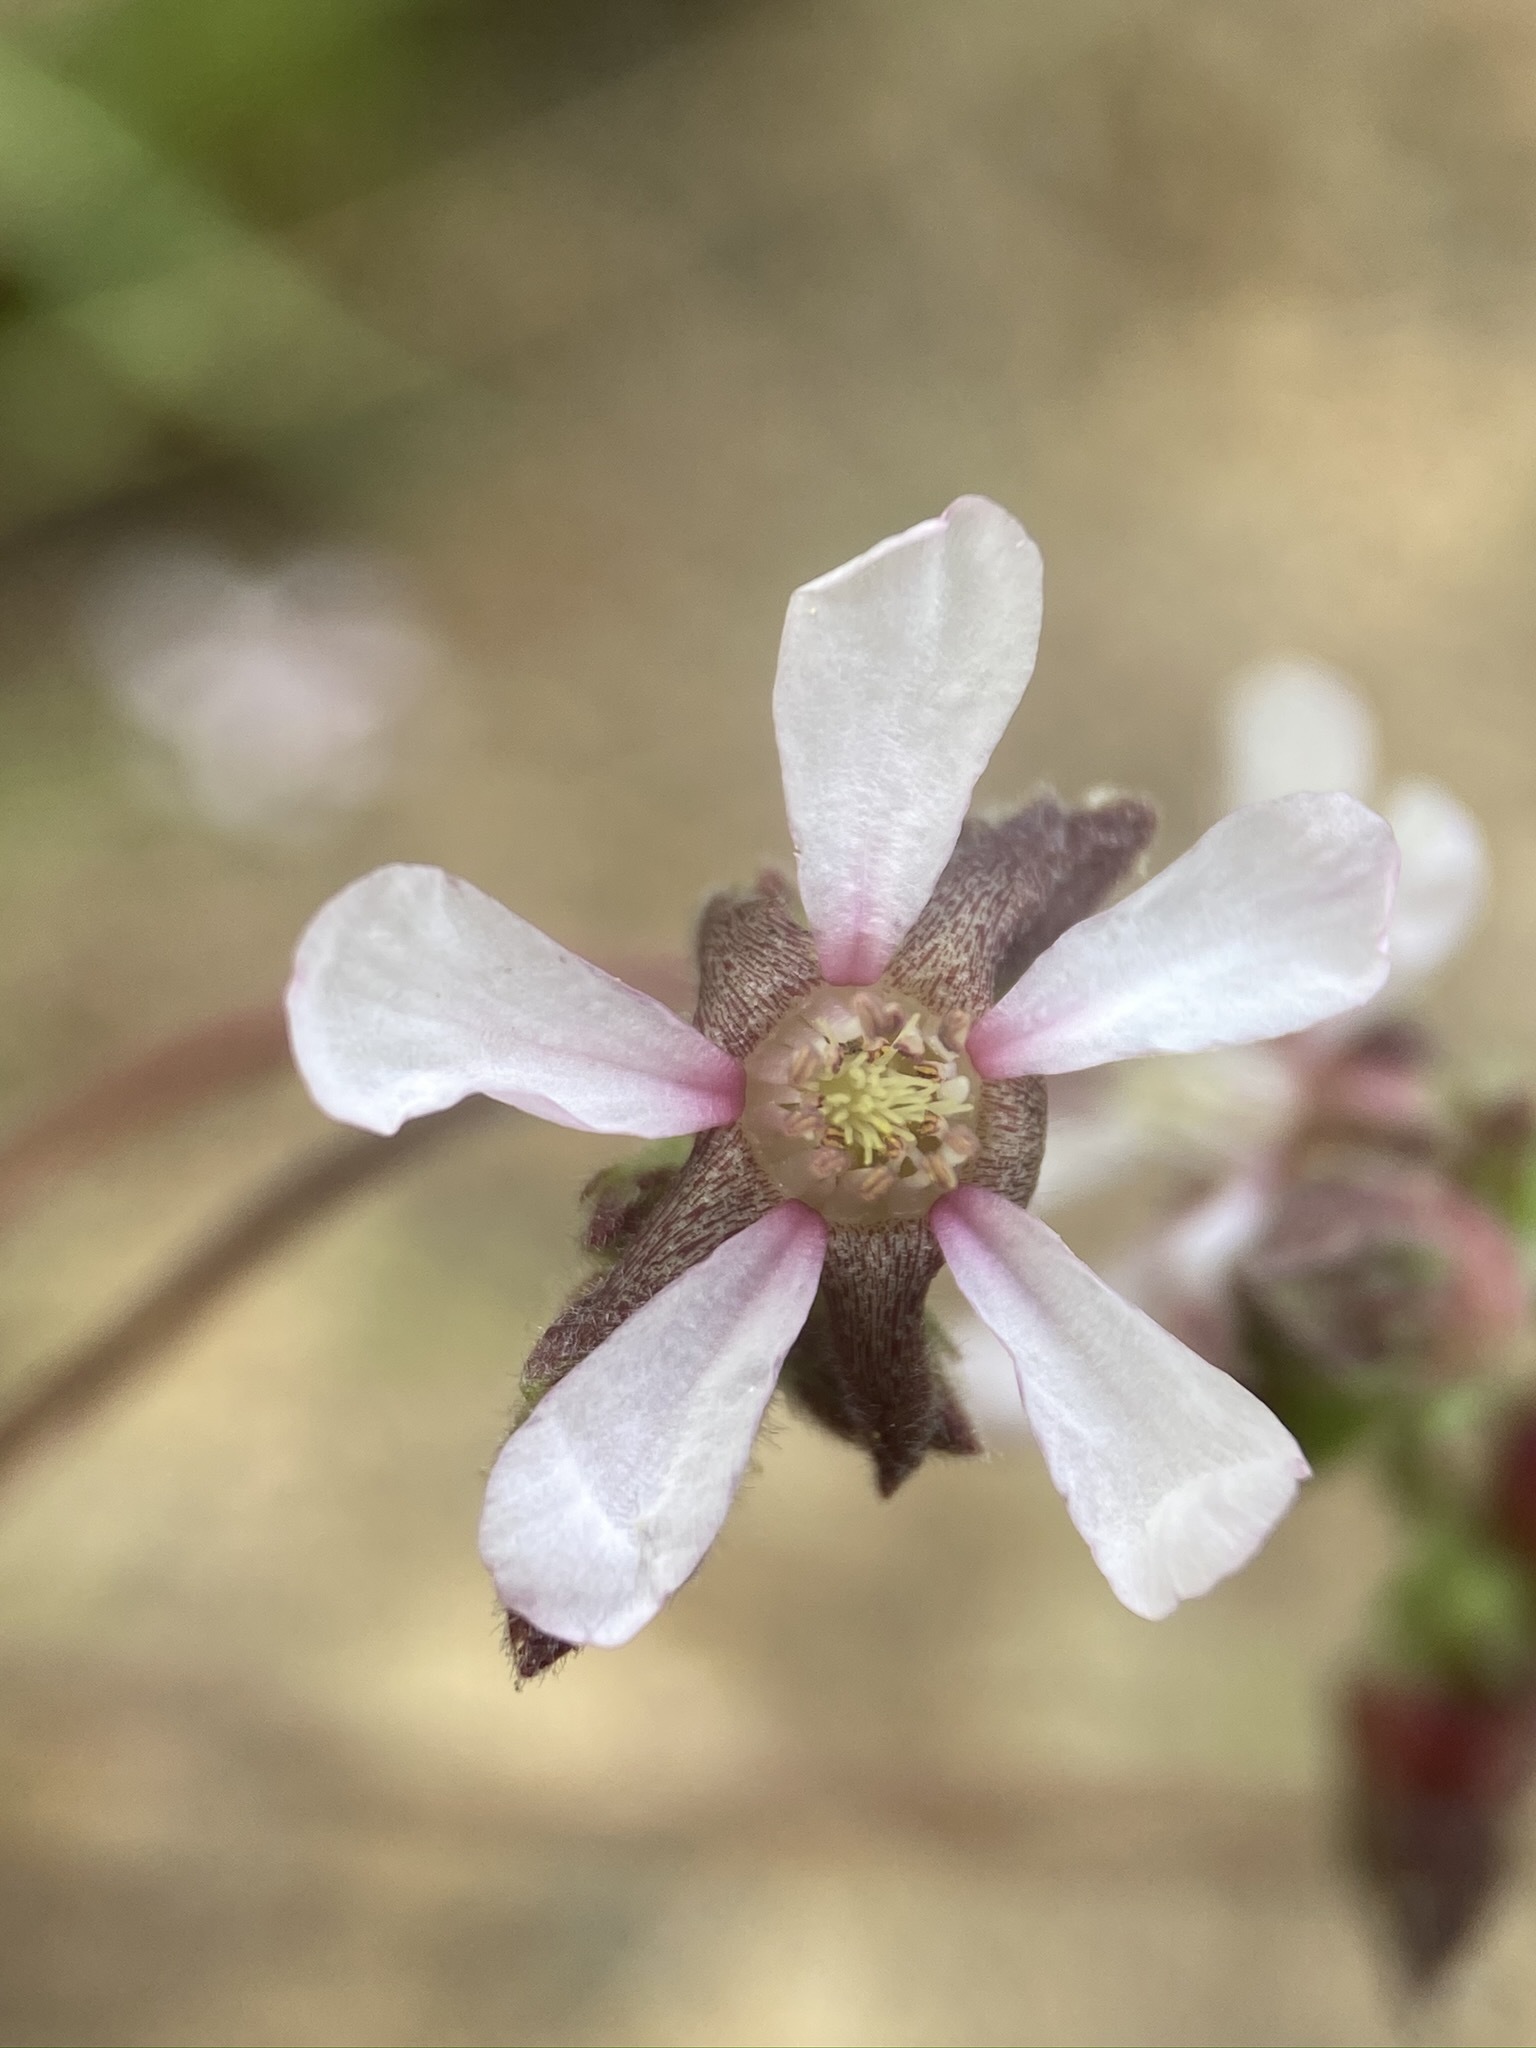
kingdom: Plantae
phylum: Tracheophyta
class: Magnoliopsida
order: Rosales
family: Rosaceae
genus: Potentilla
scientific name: Potentilla purpurascens
